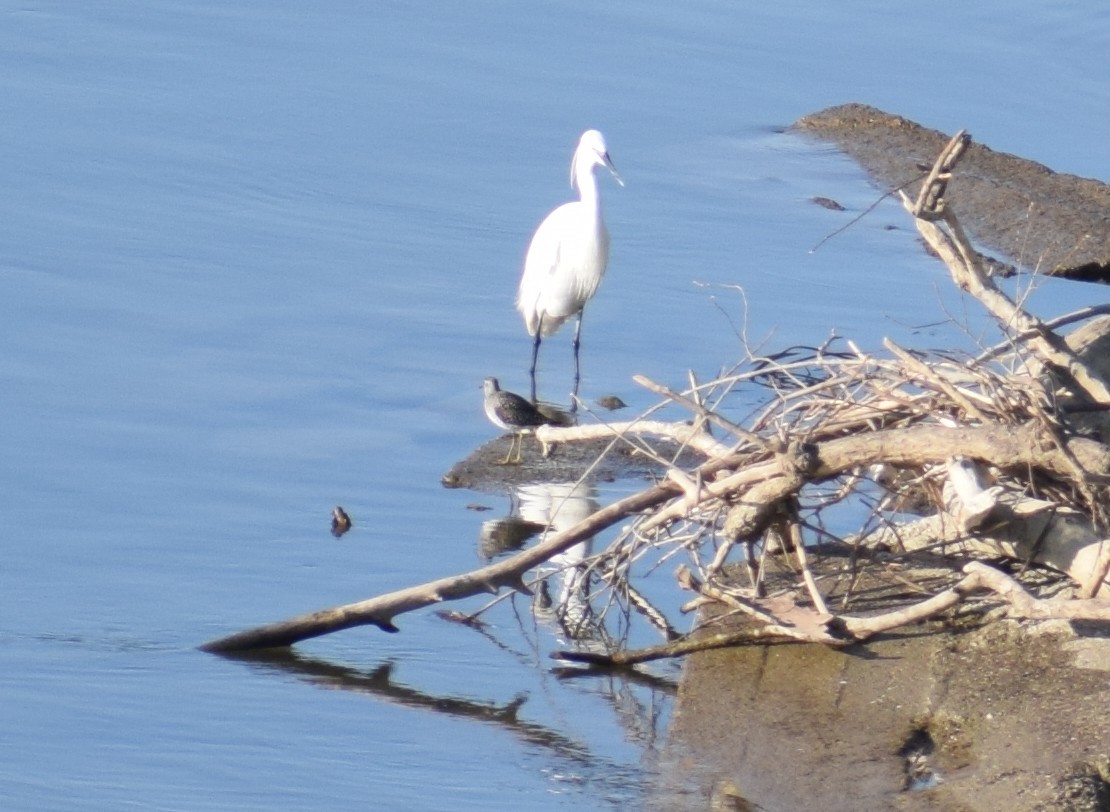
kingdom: Animalia
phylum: Chordata
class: Aves
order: Charadriiformes
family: Scolopacidae
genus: Tringa
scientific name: Tringa glareola
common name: Wood sandpiper
